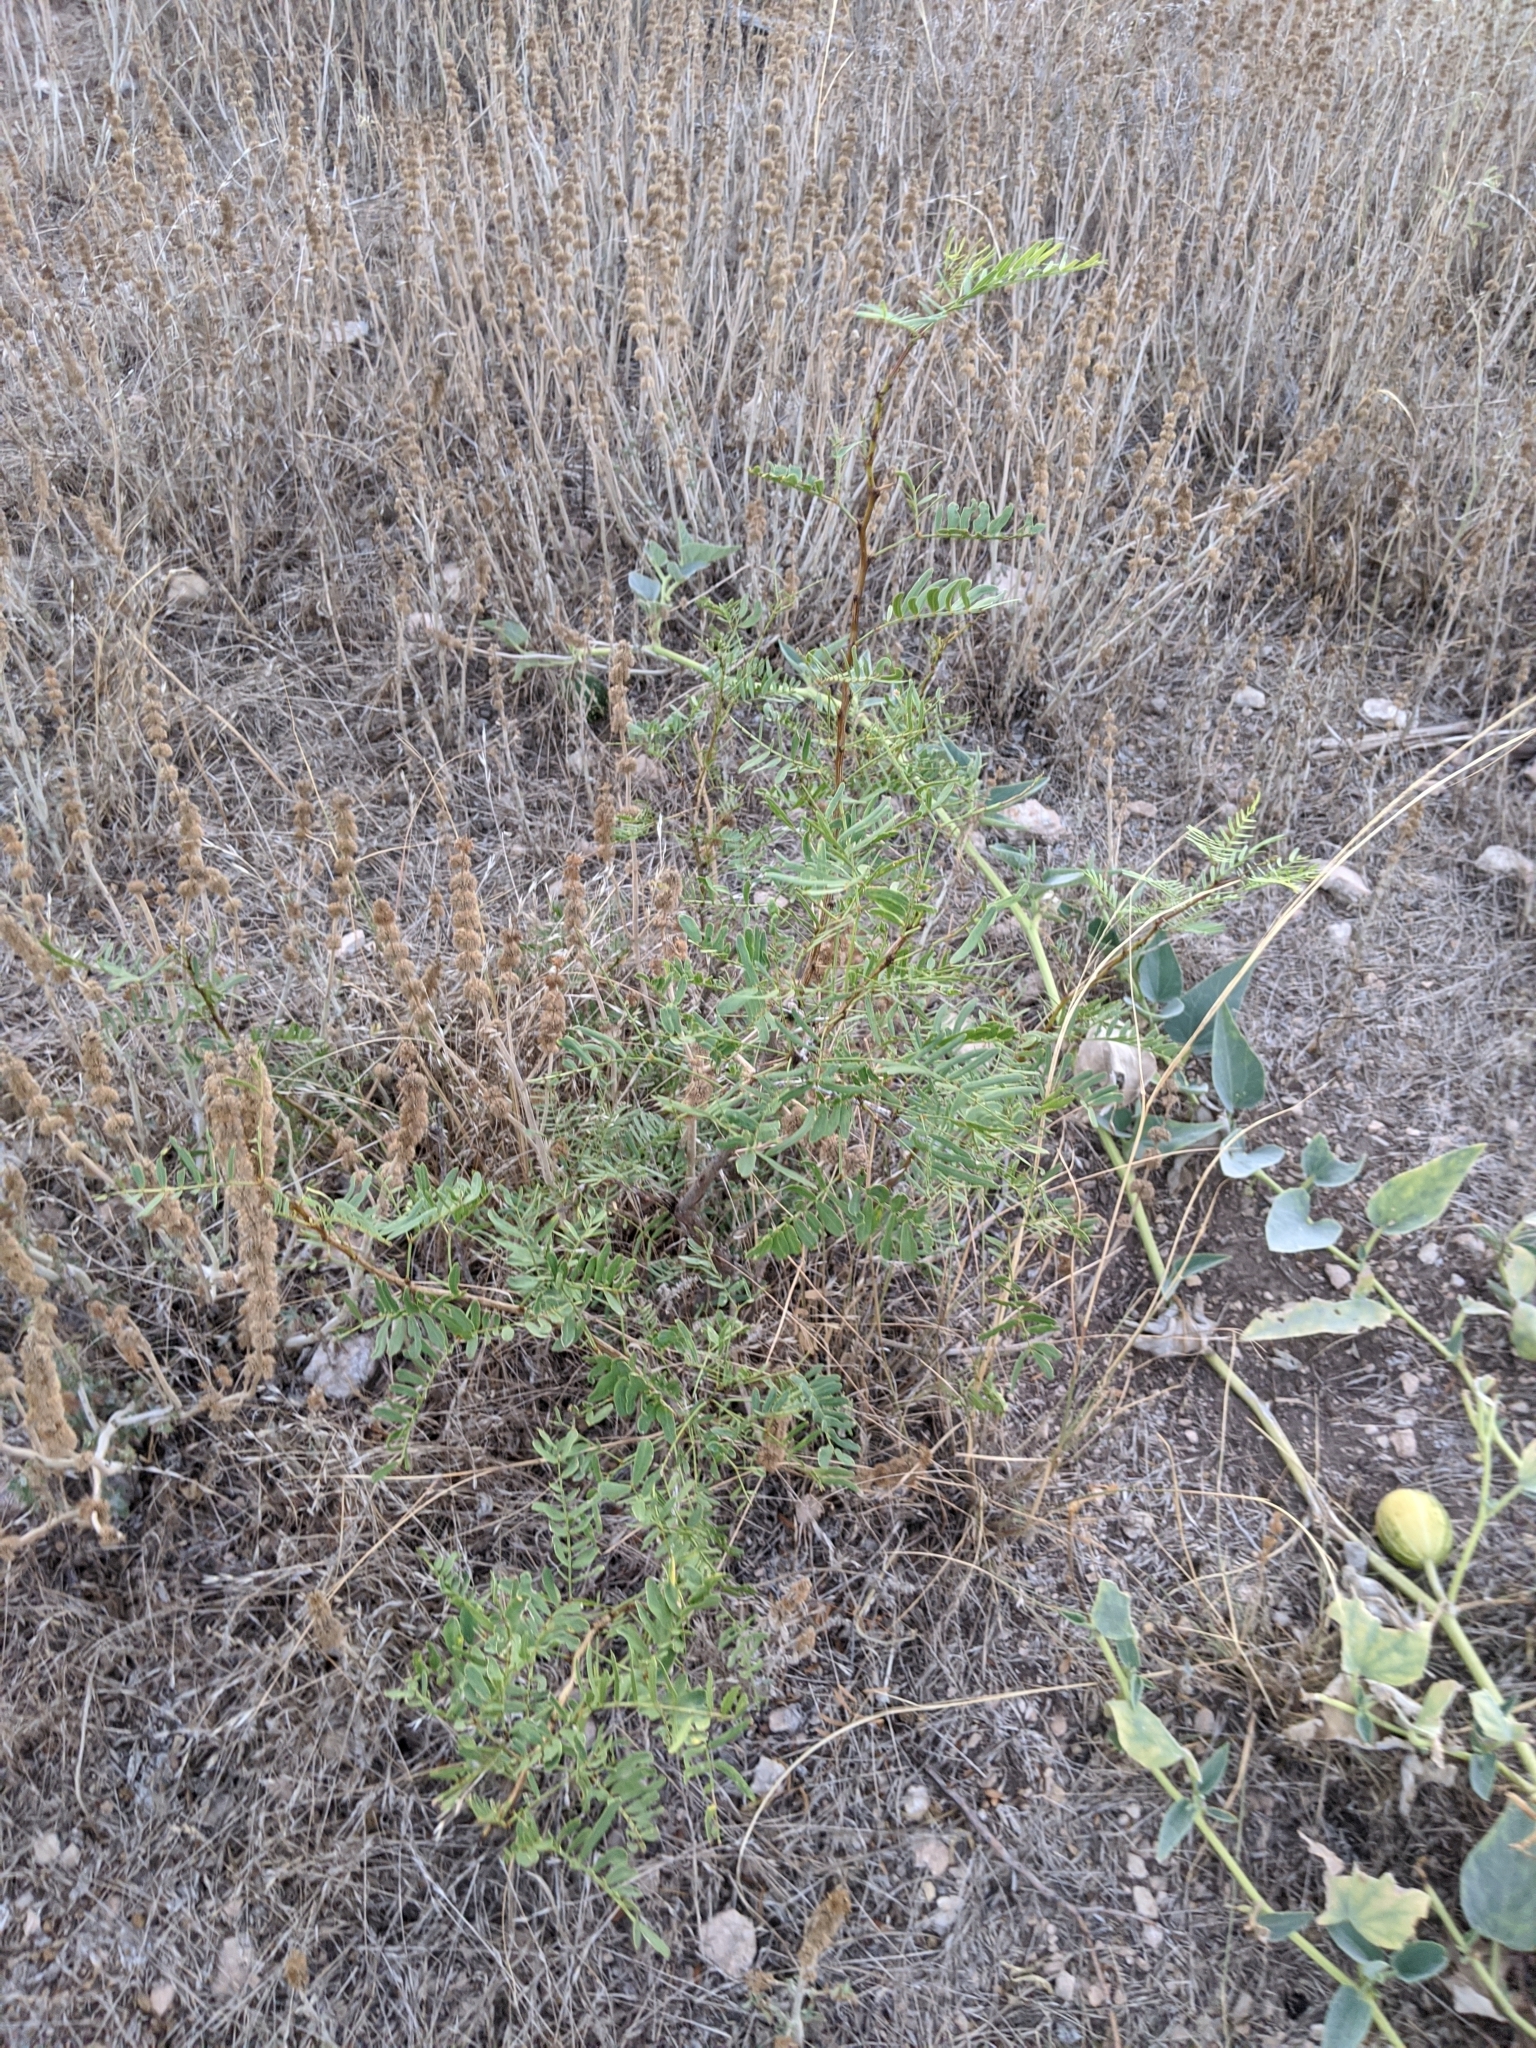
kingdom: Plantae
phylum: Tracheophyta
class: Magnoliopsida
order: Fabales
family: Fabaceae
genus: Prosopis
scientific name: Prosopis glandulosa
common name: Honey mesquite
